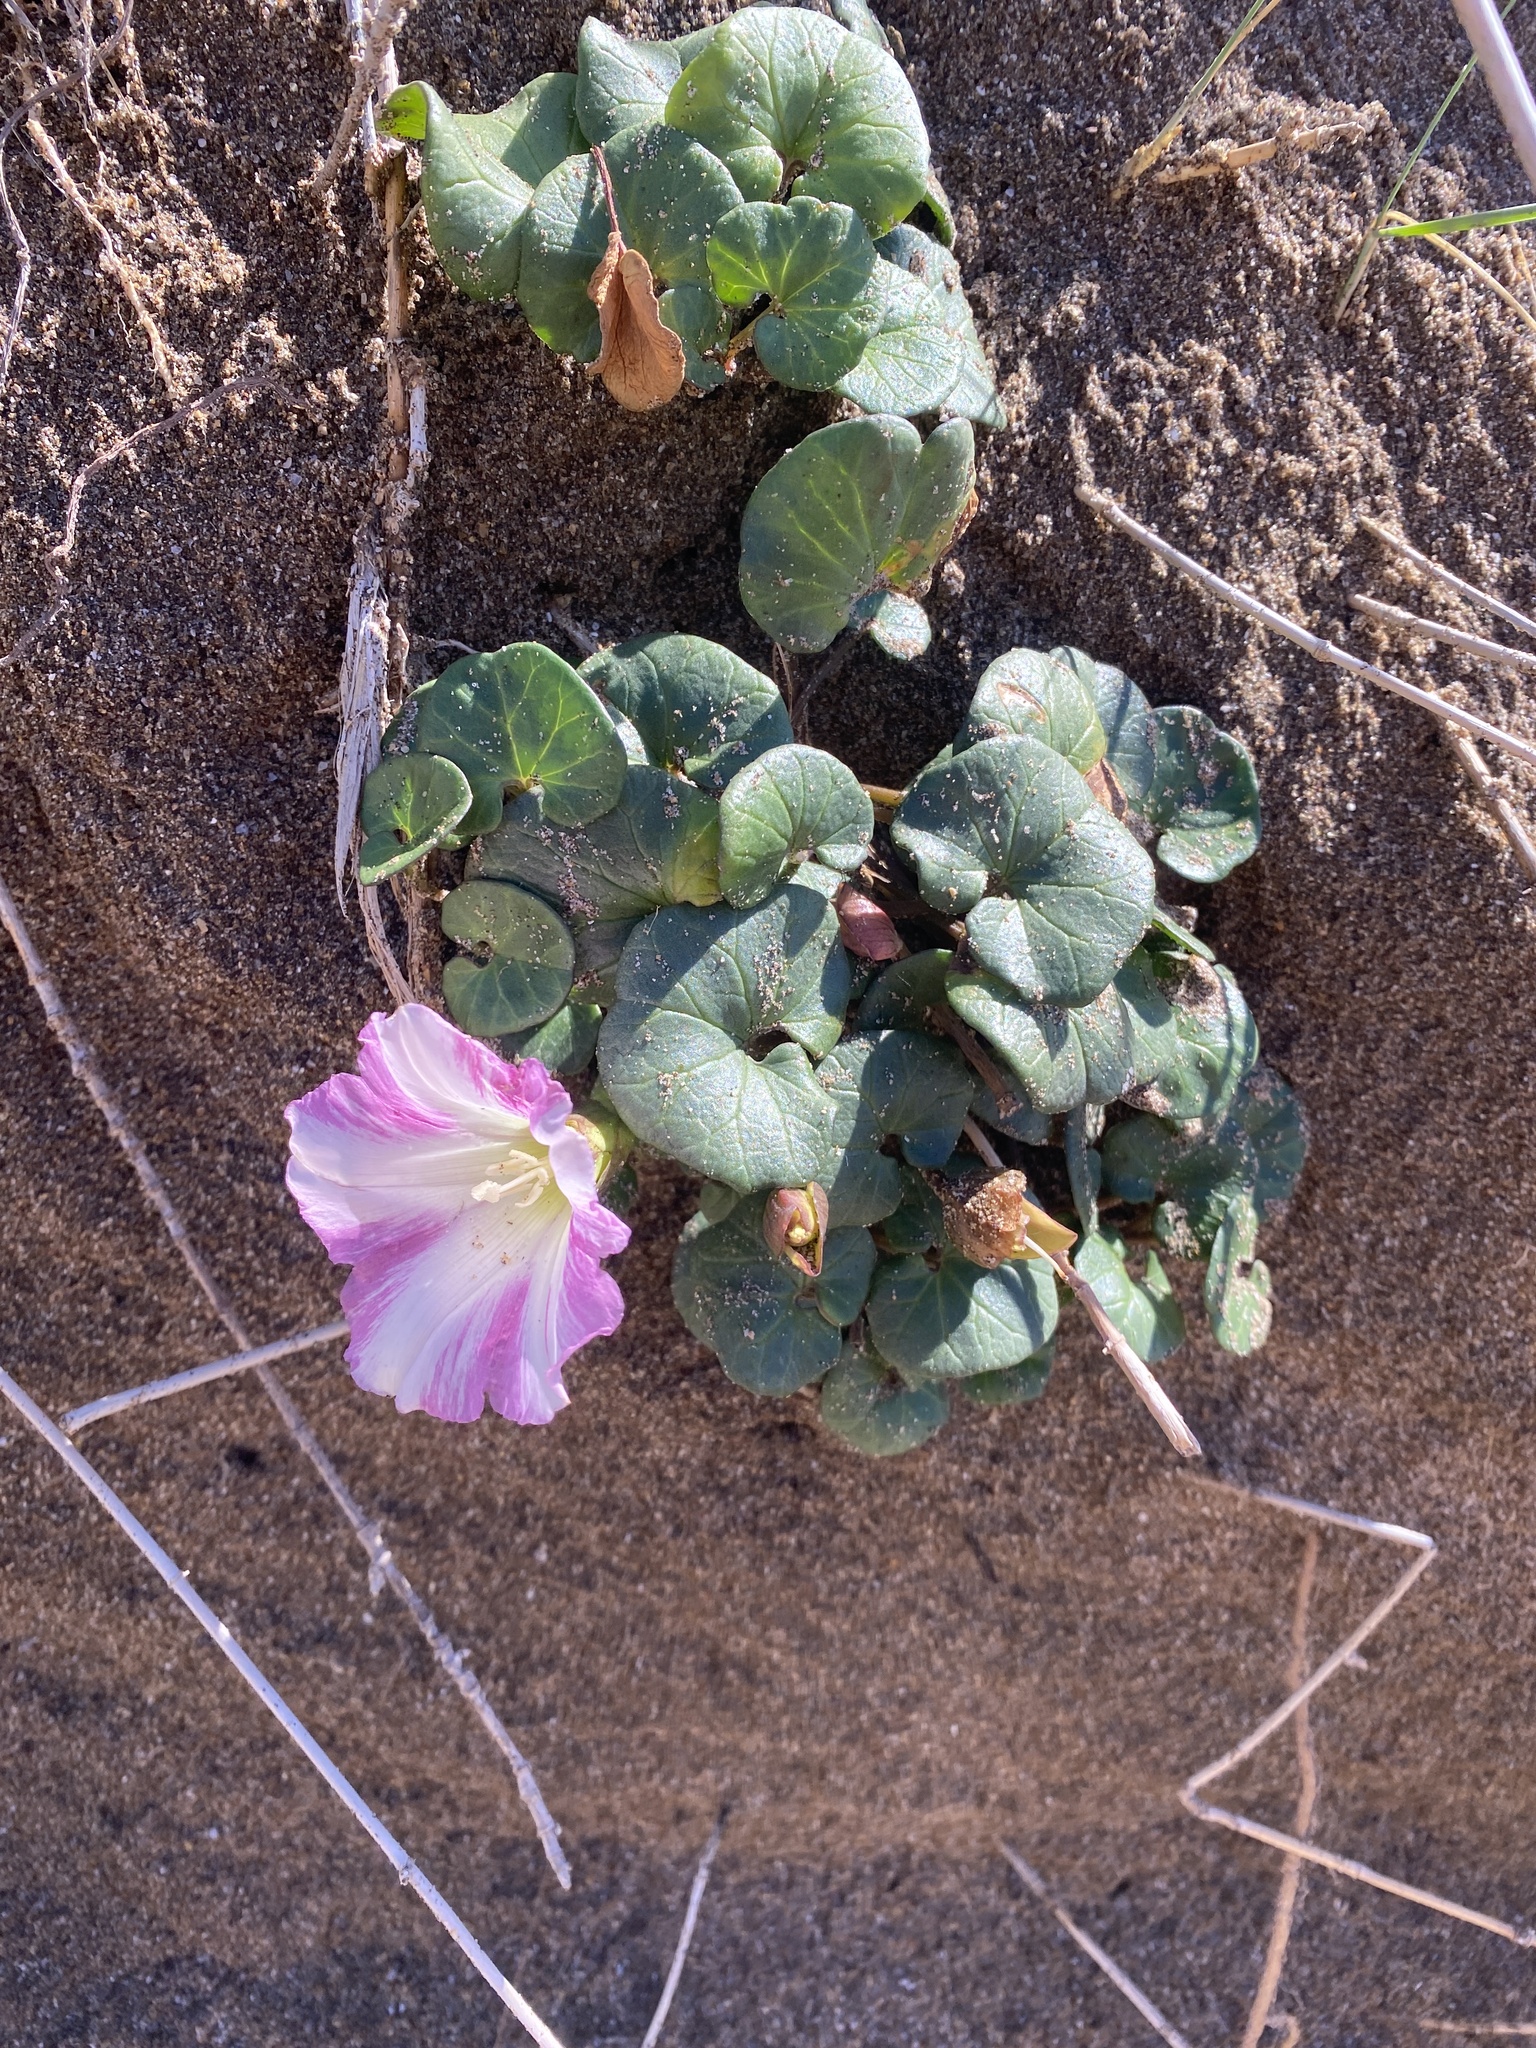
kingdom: Plantae
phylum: Tracheophyta
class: Magnoliopsida
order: Solanales
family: Convolvulaceae
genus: Calystegia
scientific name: Calystegia soldanella
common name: Sea bindweed
